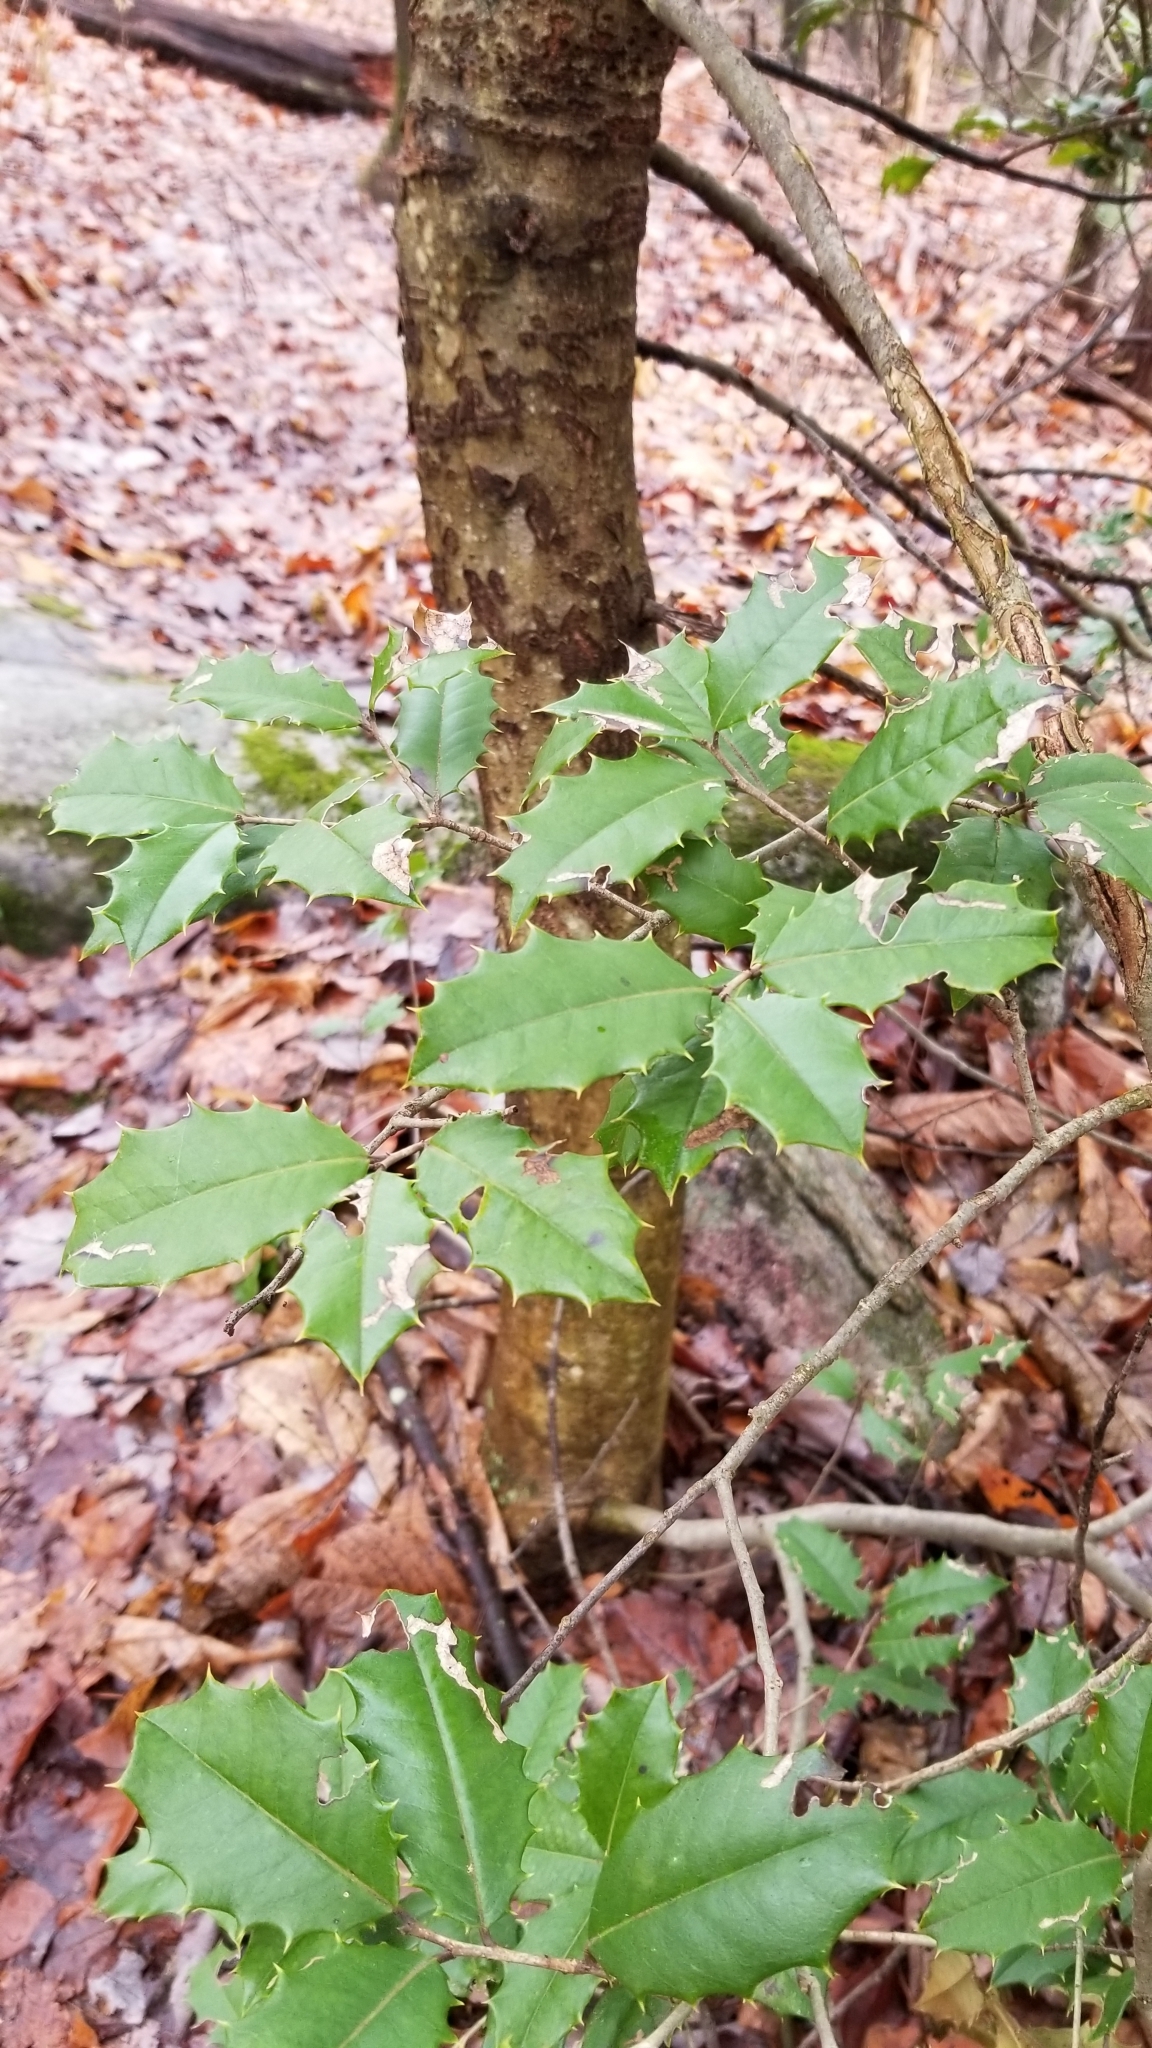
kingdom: Plantae
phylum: Tracheophyta
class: Magnoliopsida
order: Aquifoliales
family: Aquifoliaceae
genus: Ilex
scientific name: Ilex opaca
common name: American holly
